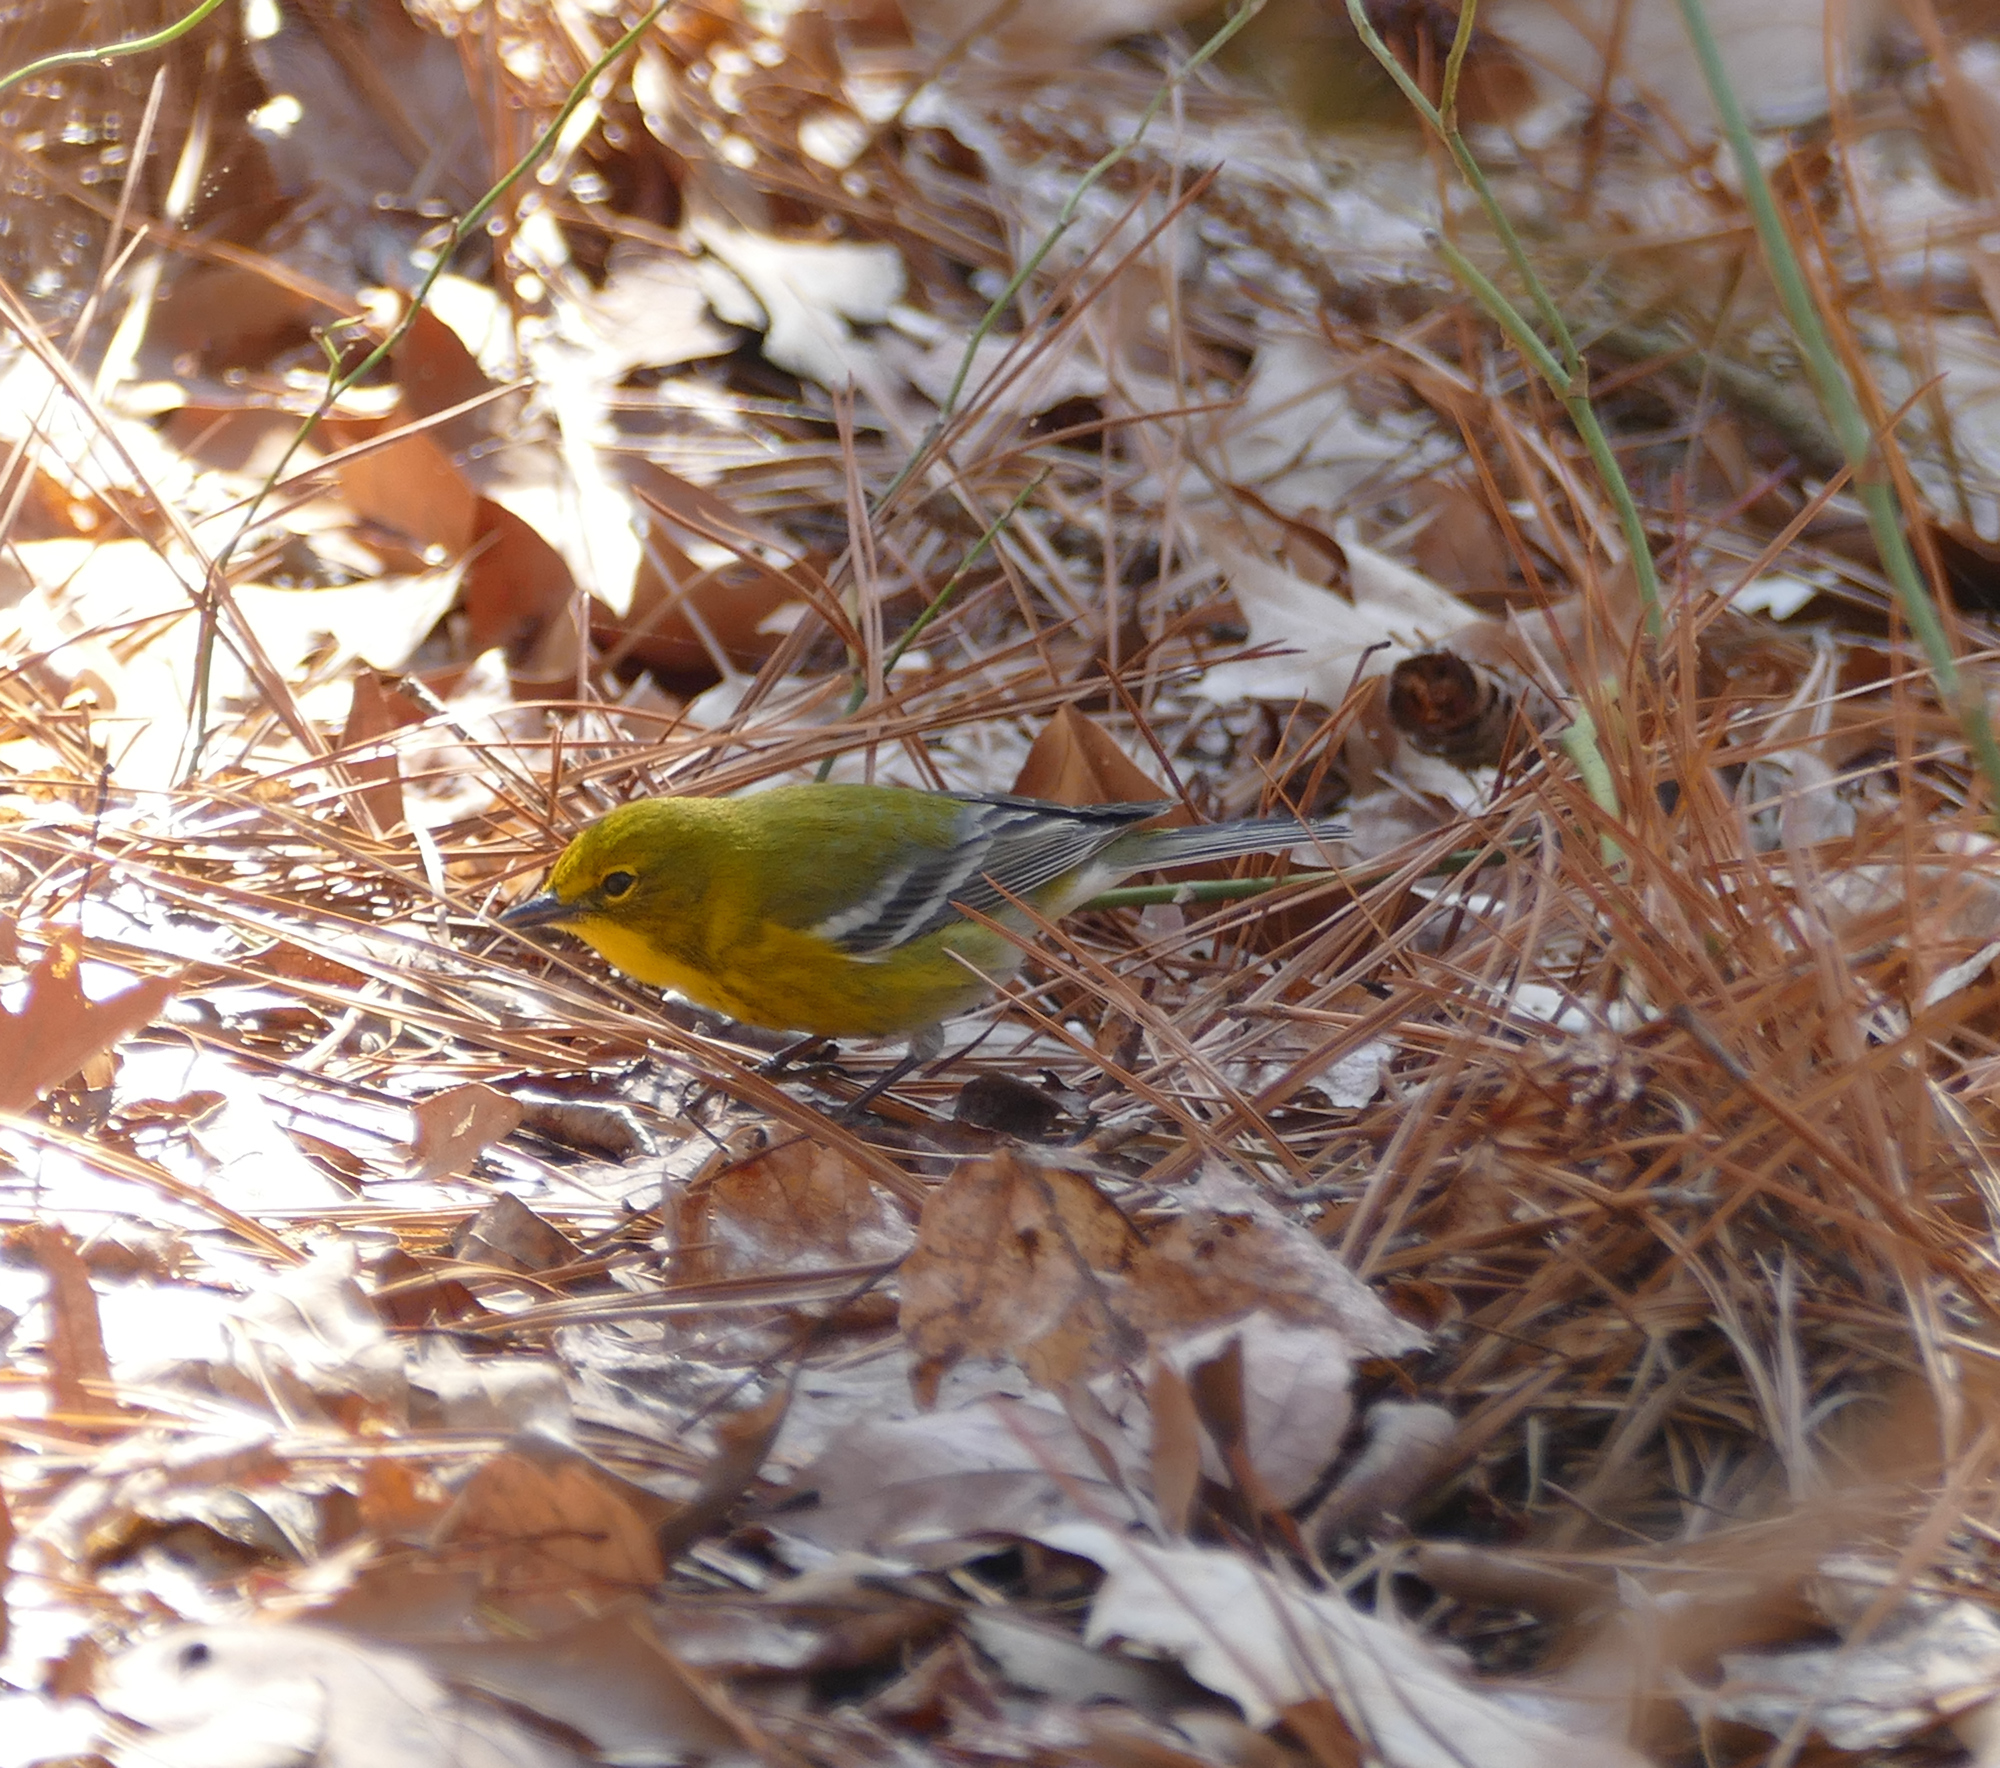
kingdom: Animalia
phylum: Chordata
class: Aves
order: Passeriformes
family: Parulidae
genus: Setophaga
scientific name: Setophaga pinus
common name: Pine warbler
